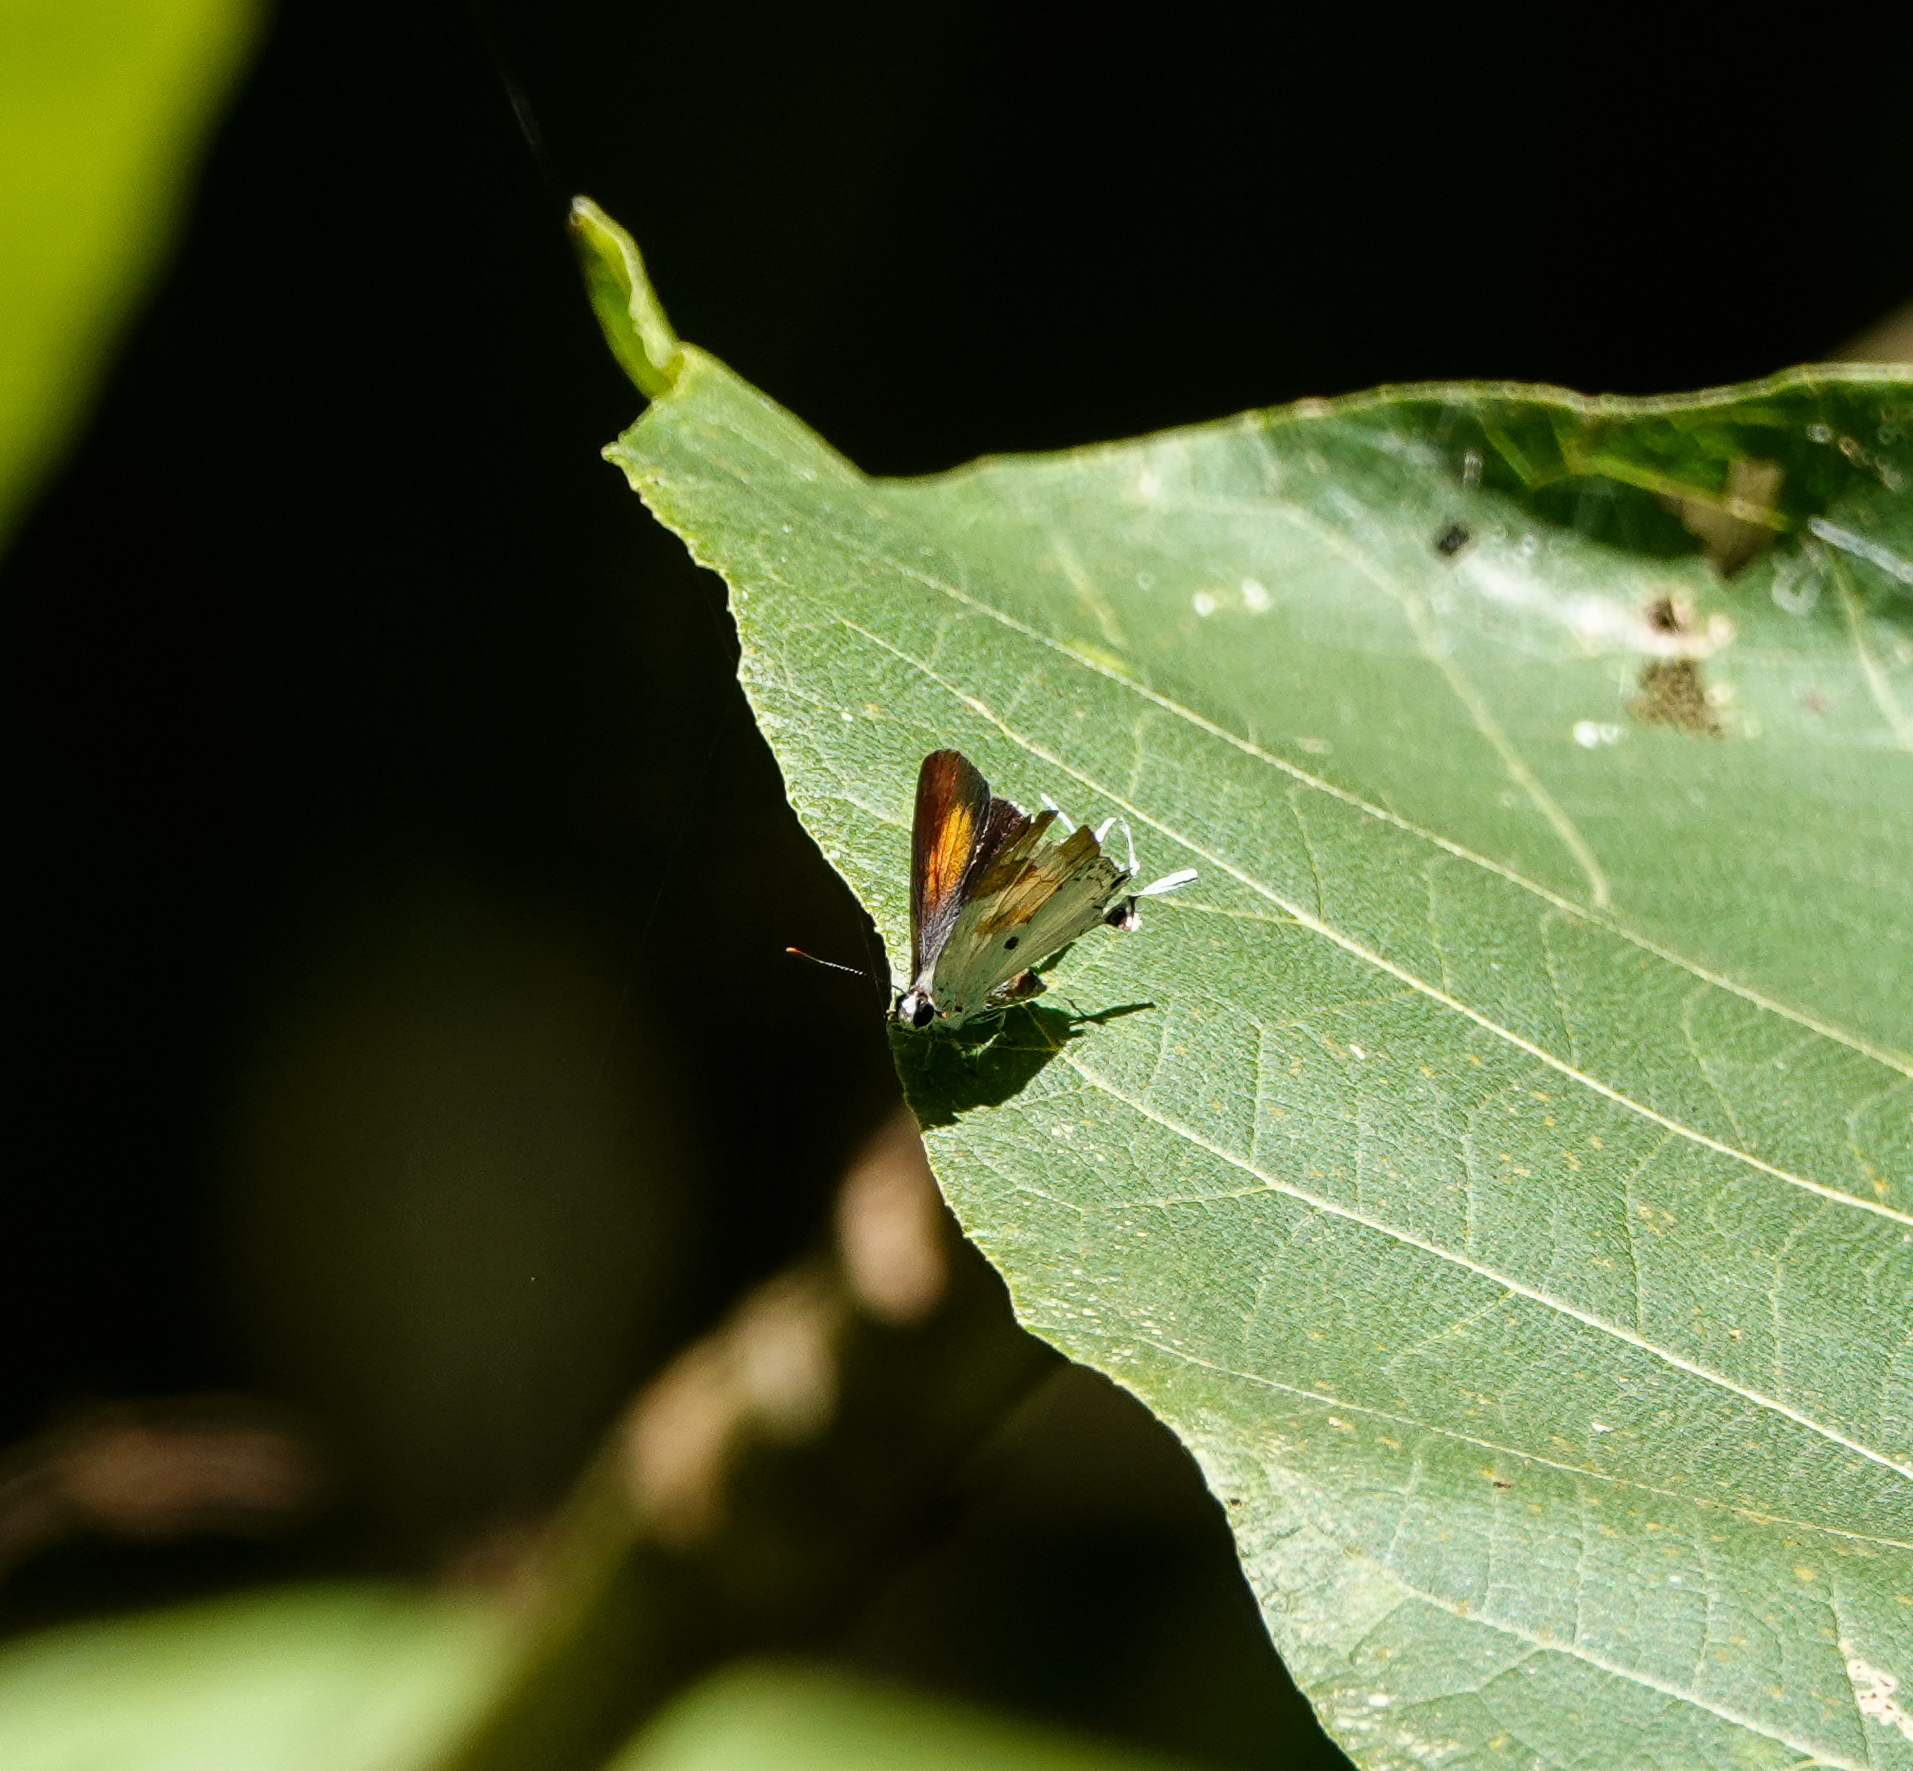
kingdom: Animalia
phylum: Arthropoda
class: Insecta
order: Lepidoptera
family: Lycaenidae
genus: Suasa
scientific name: Suasa lisides
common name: Red imperial
